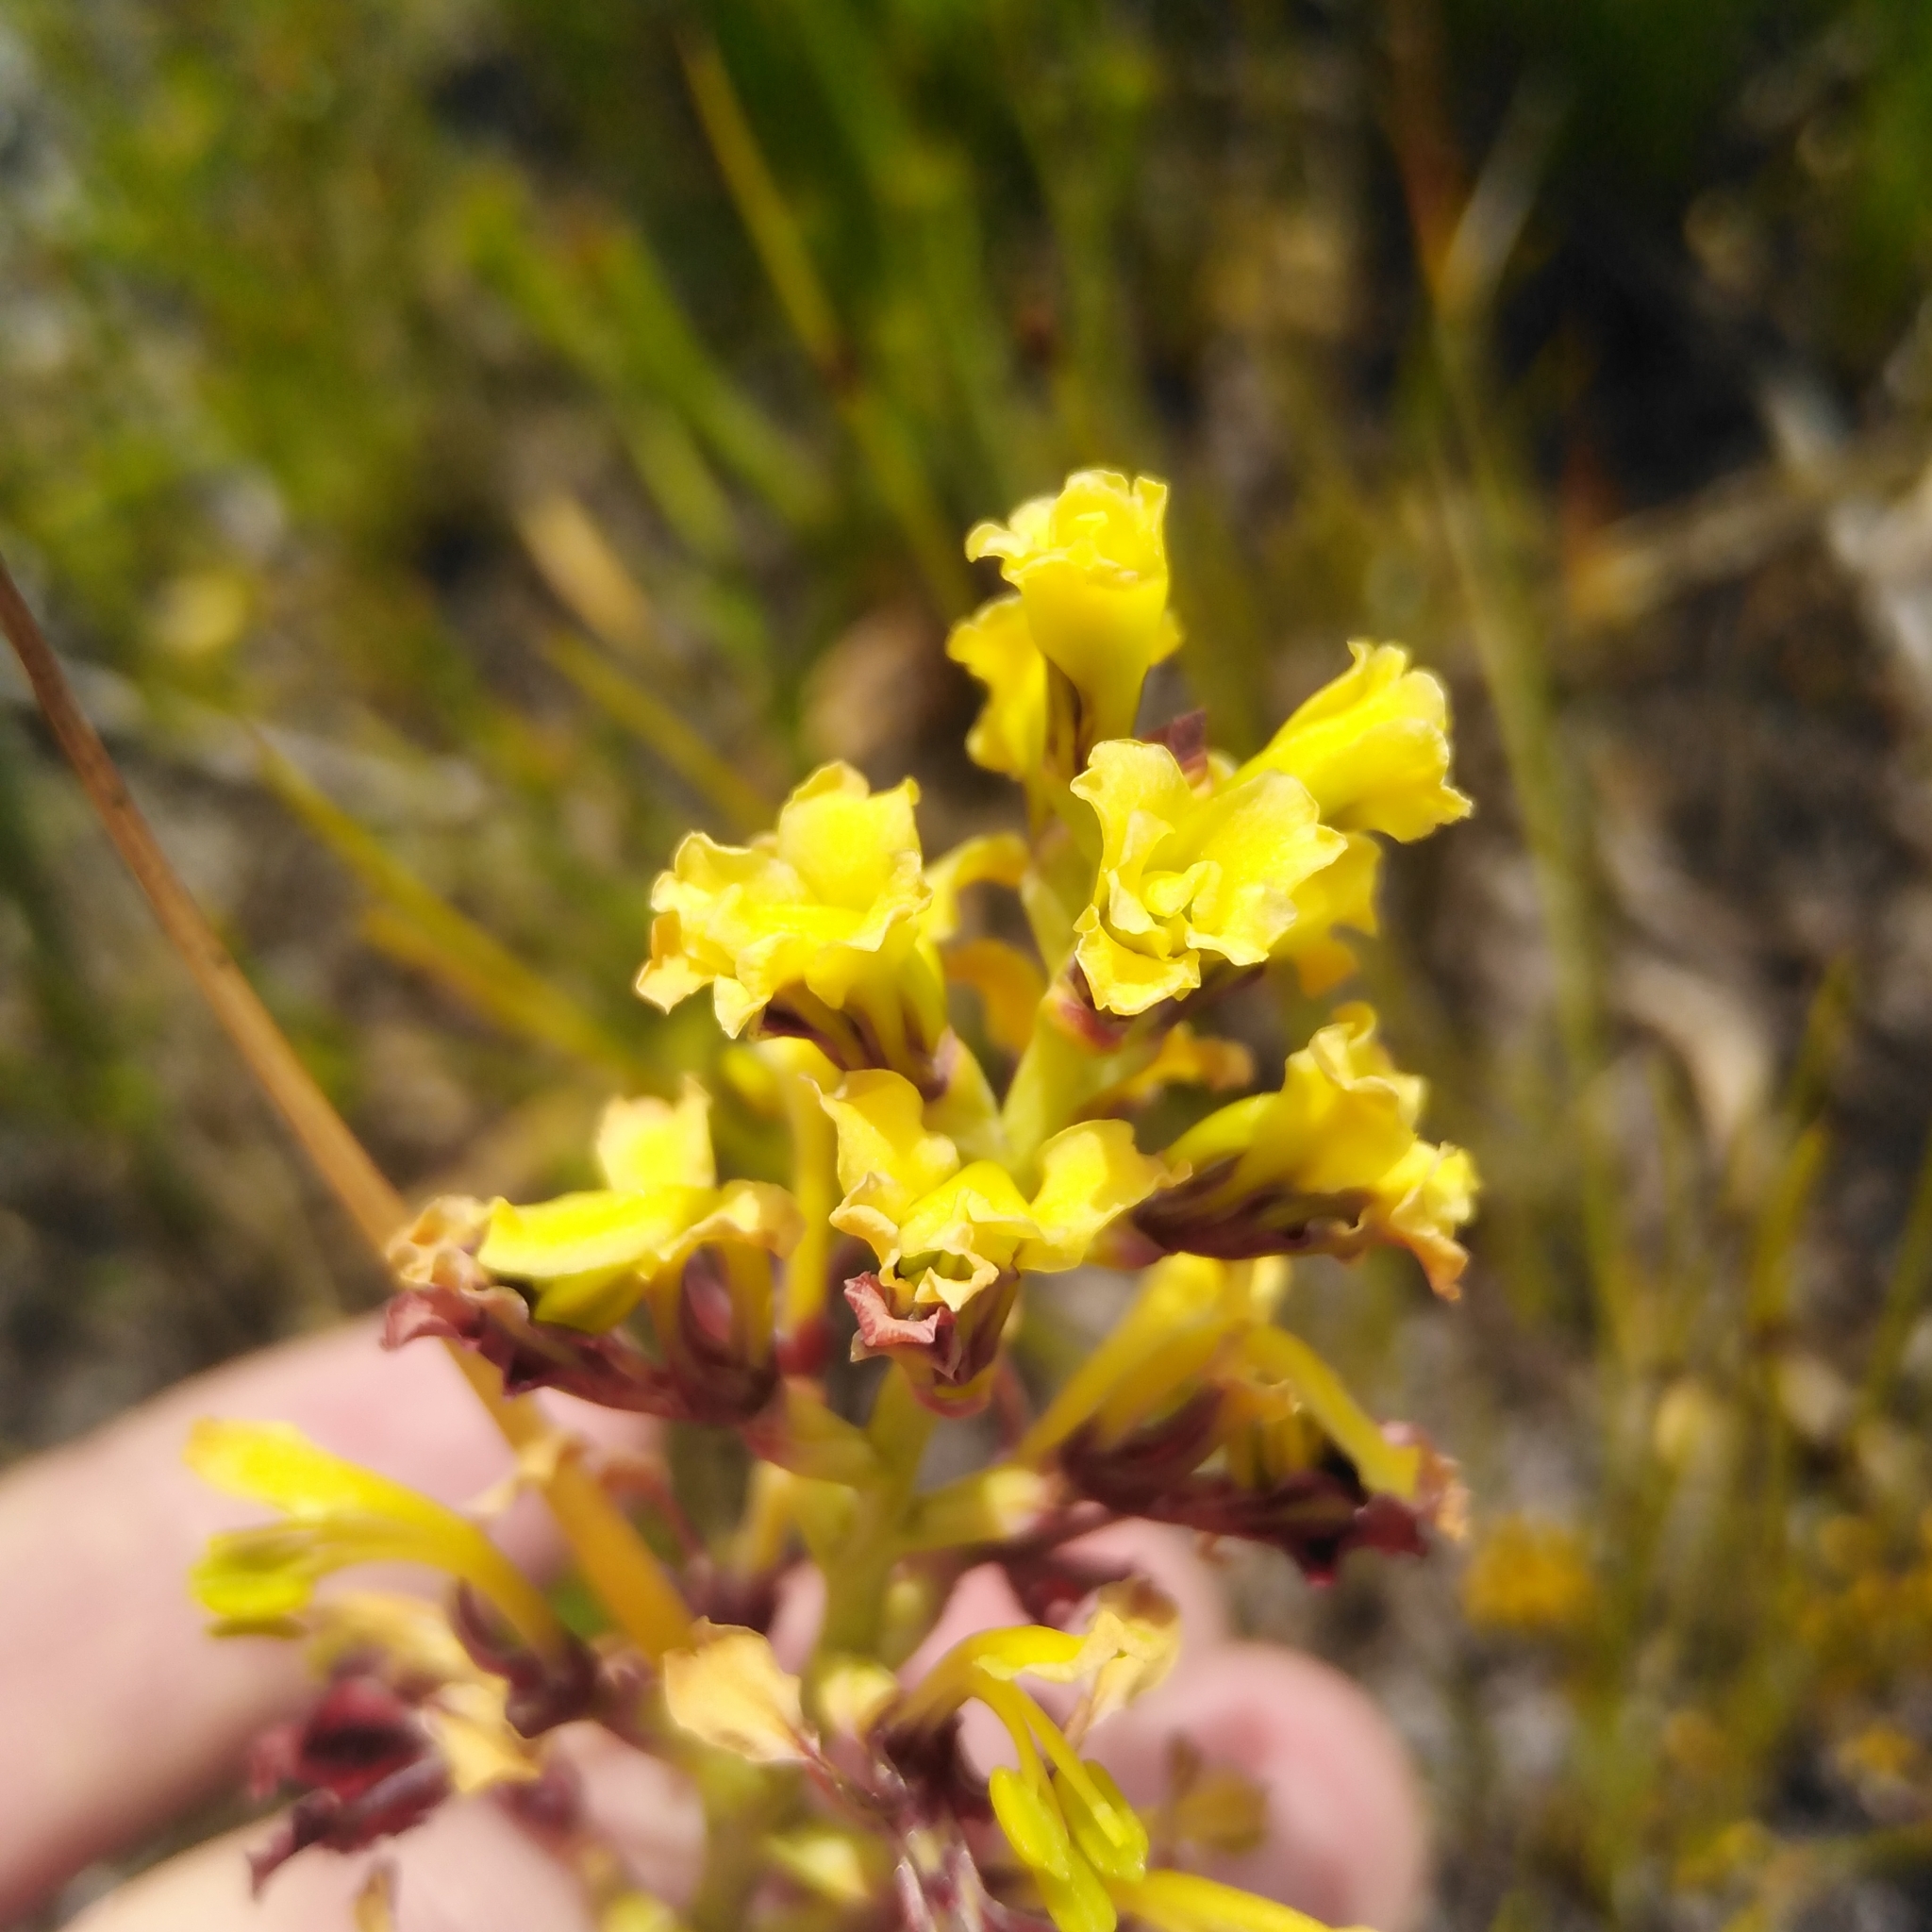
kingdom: Plantae
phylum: Tracheophyta
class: Liliopsida
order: Asparagales
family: Iridaceae
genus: Tritoniopsis
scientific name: Tritoniopsis parviflora
